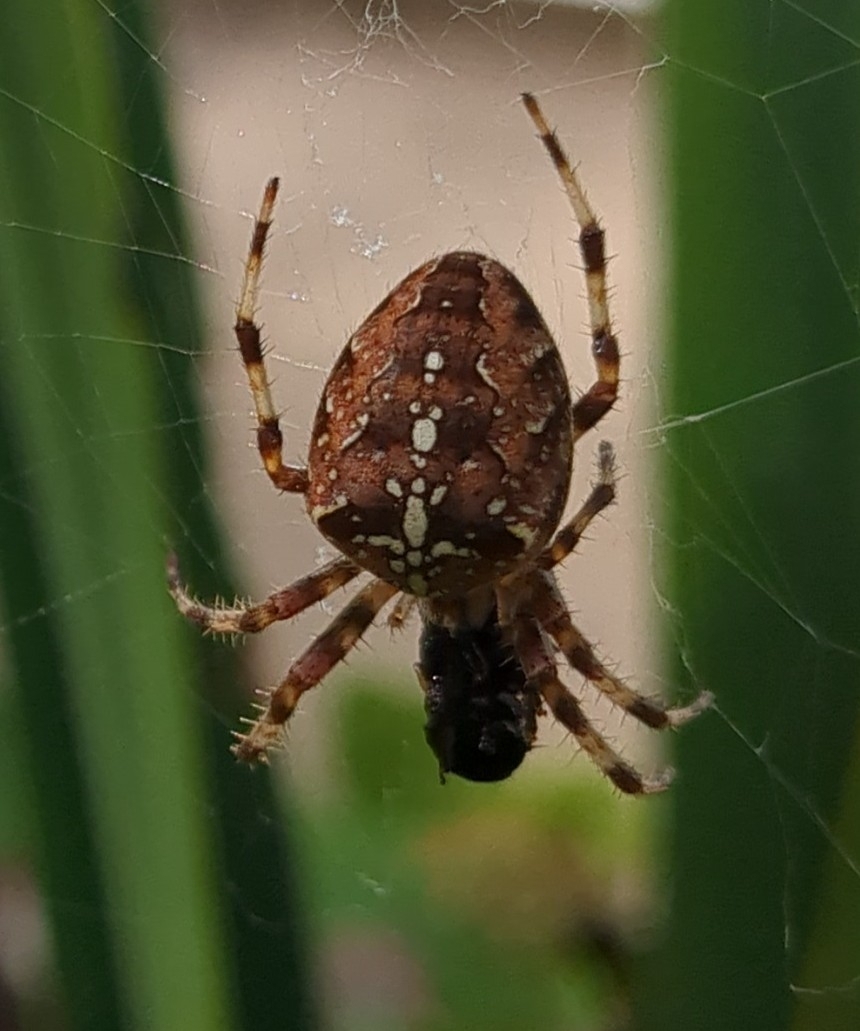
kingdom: Animalia
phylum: Arthropoda
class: Arachnida
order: Araneae
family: Araneidae
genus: Araneus
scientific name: Araneus diadematus
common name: Cross orbweaver
